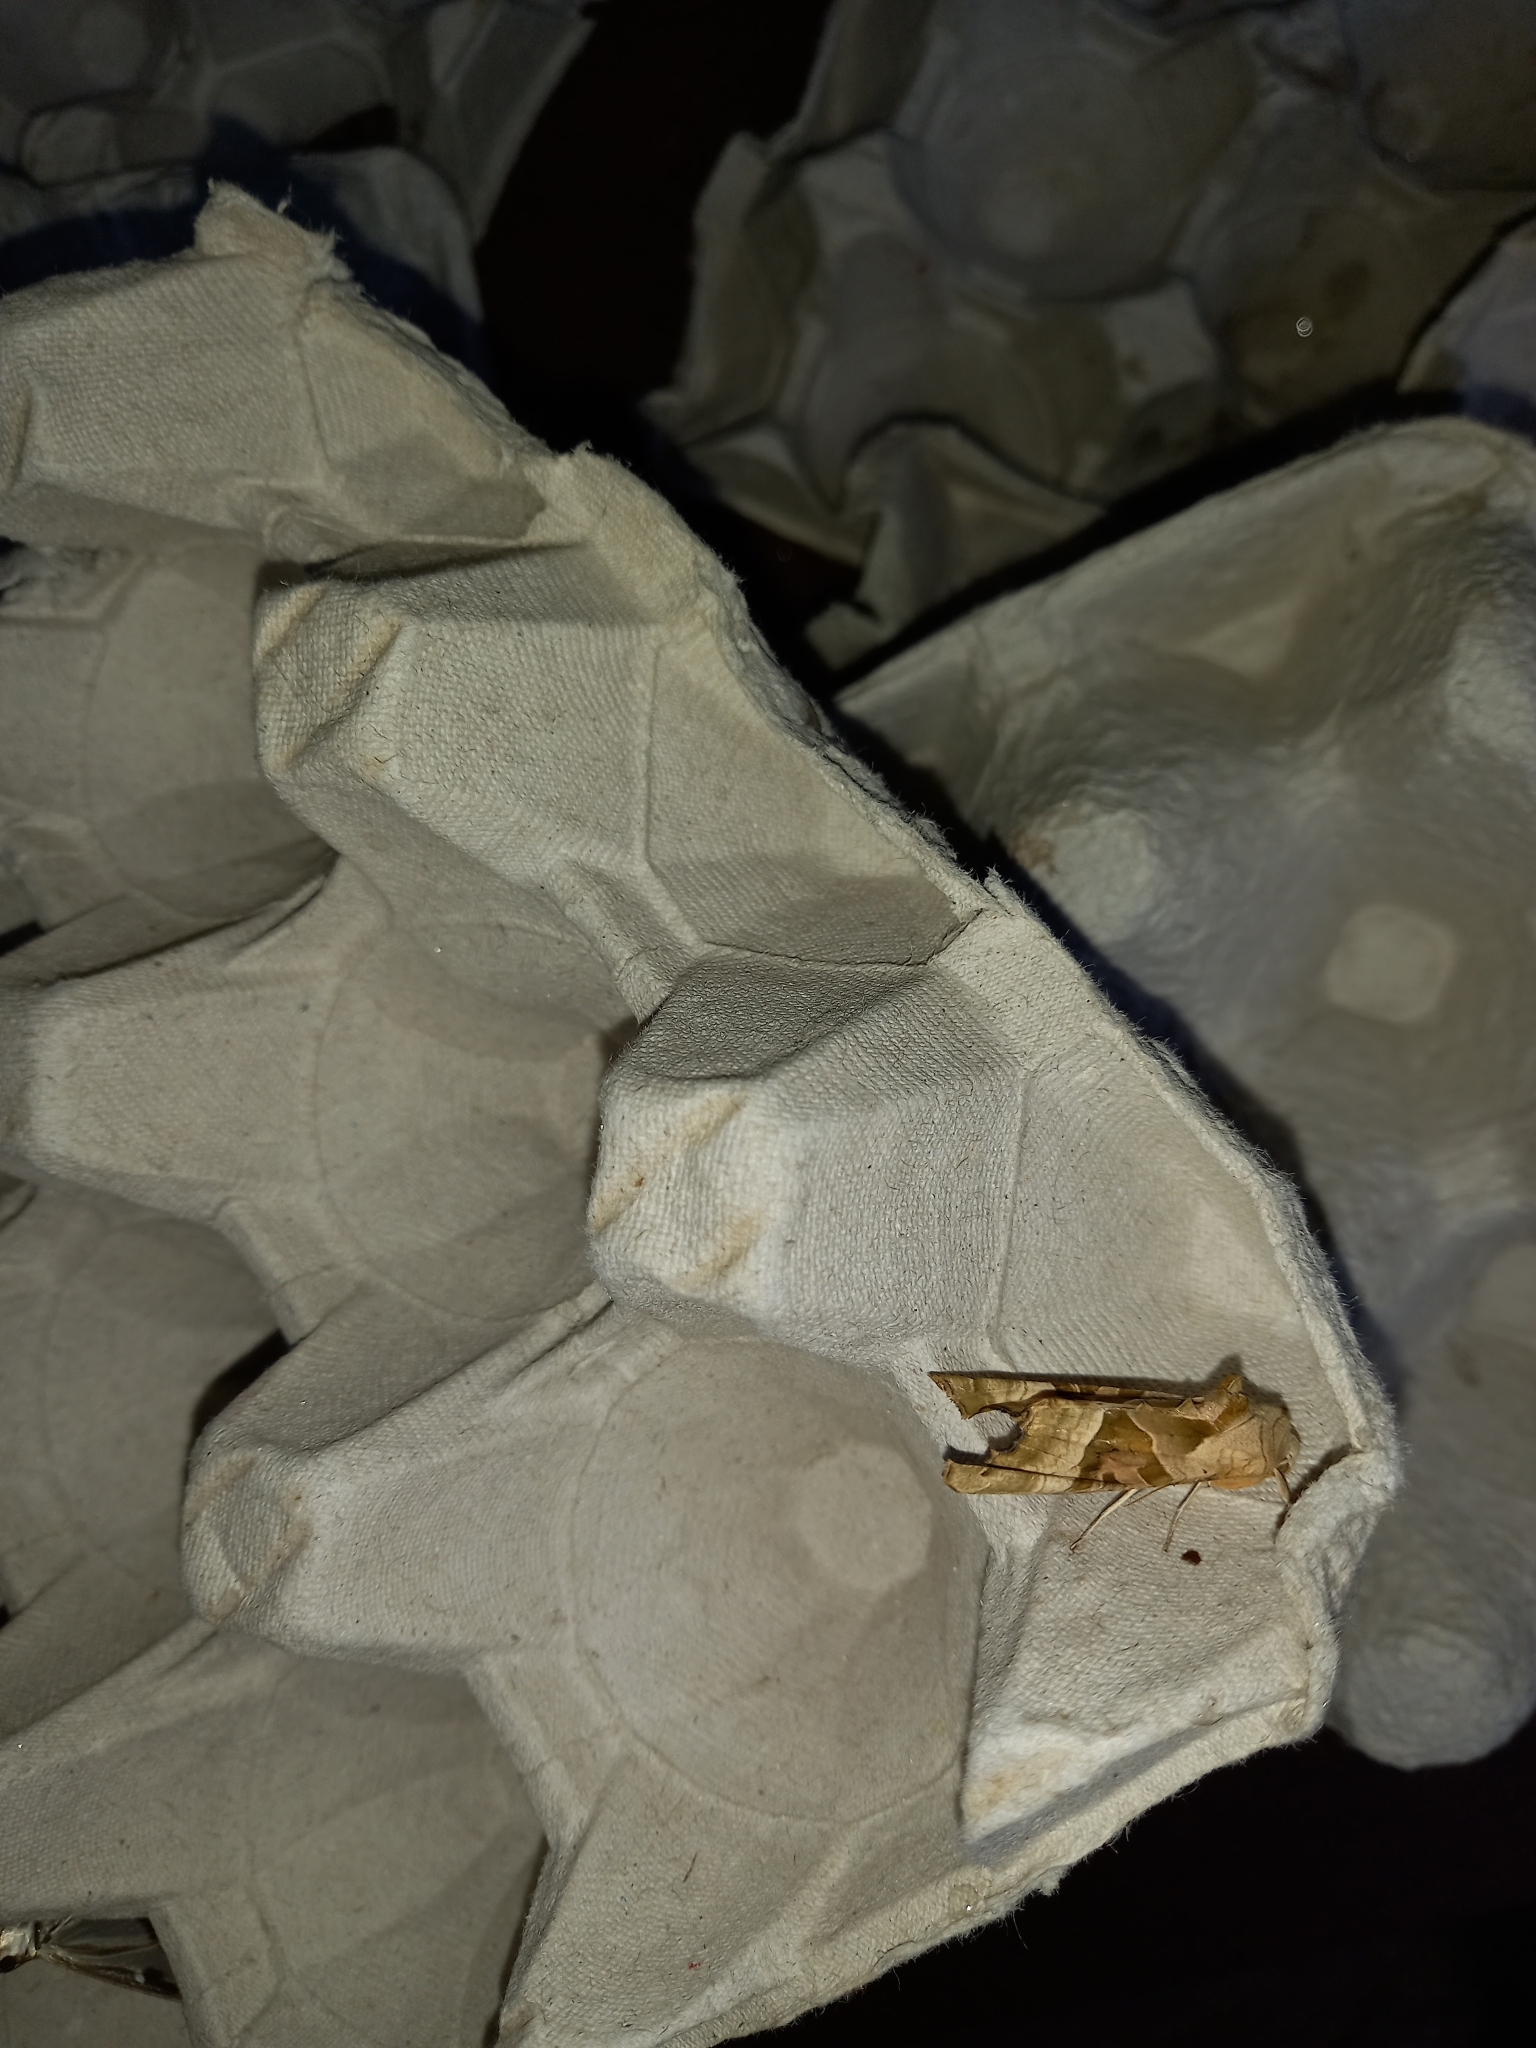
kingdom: Animalia
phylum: Arthropoda
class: Insecta
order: Lepidoptera
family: Noctuidae
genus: Phlogophora
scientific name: Phlogophora meticulosa
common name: Angle shades
